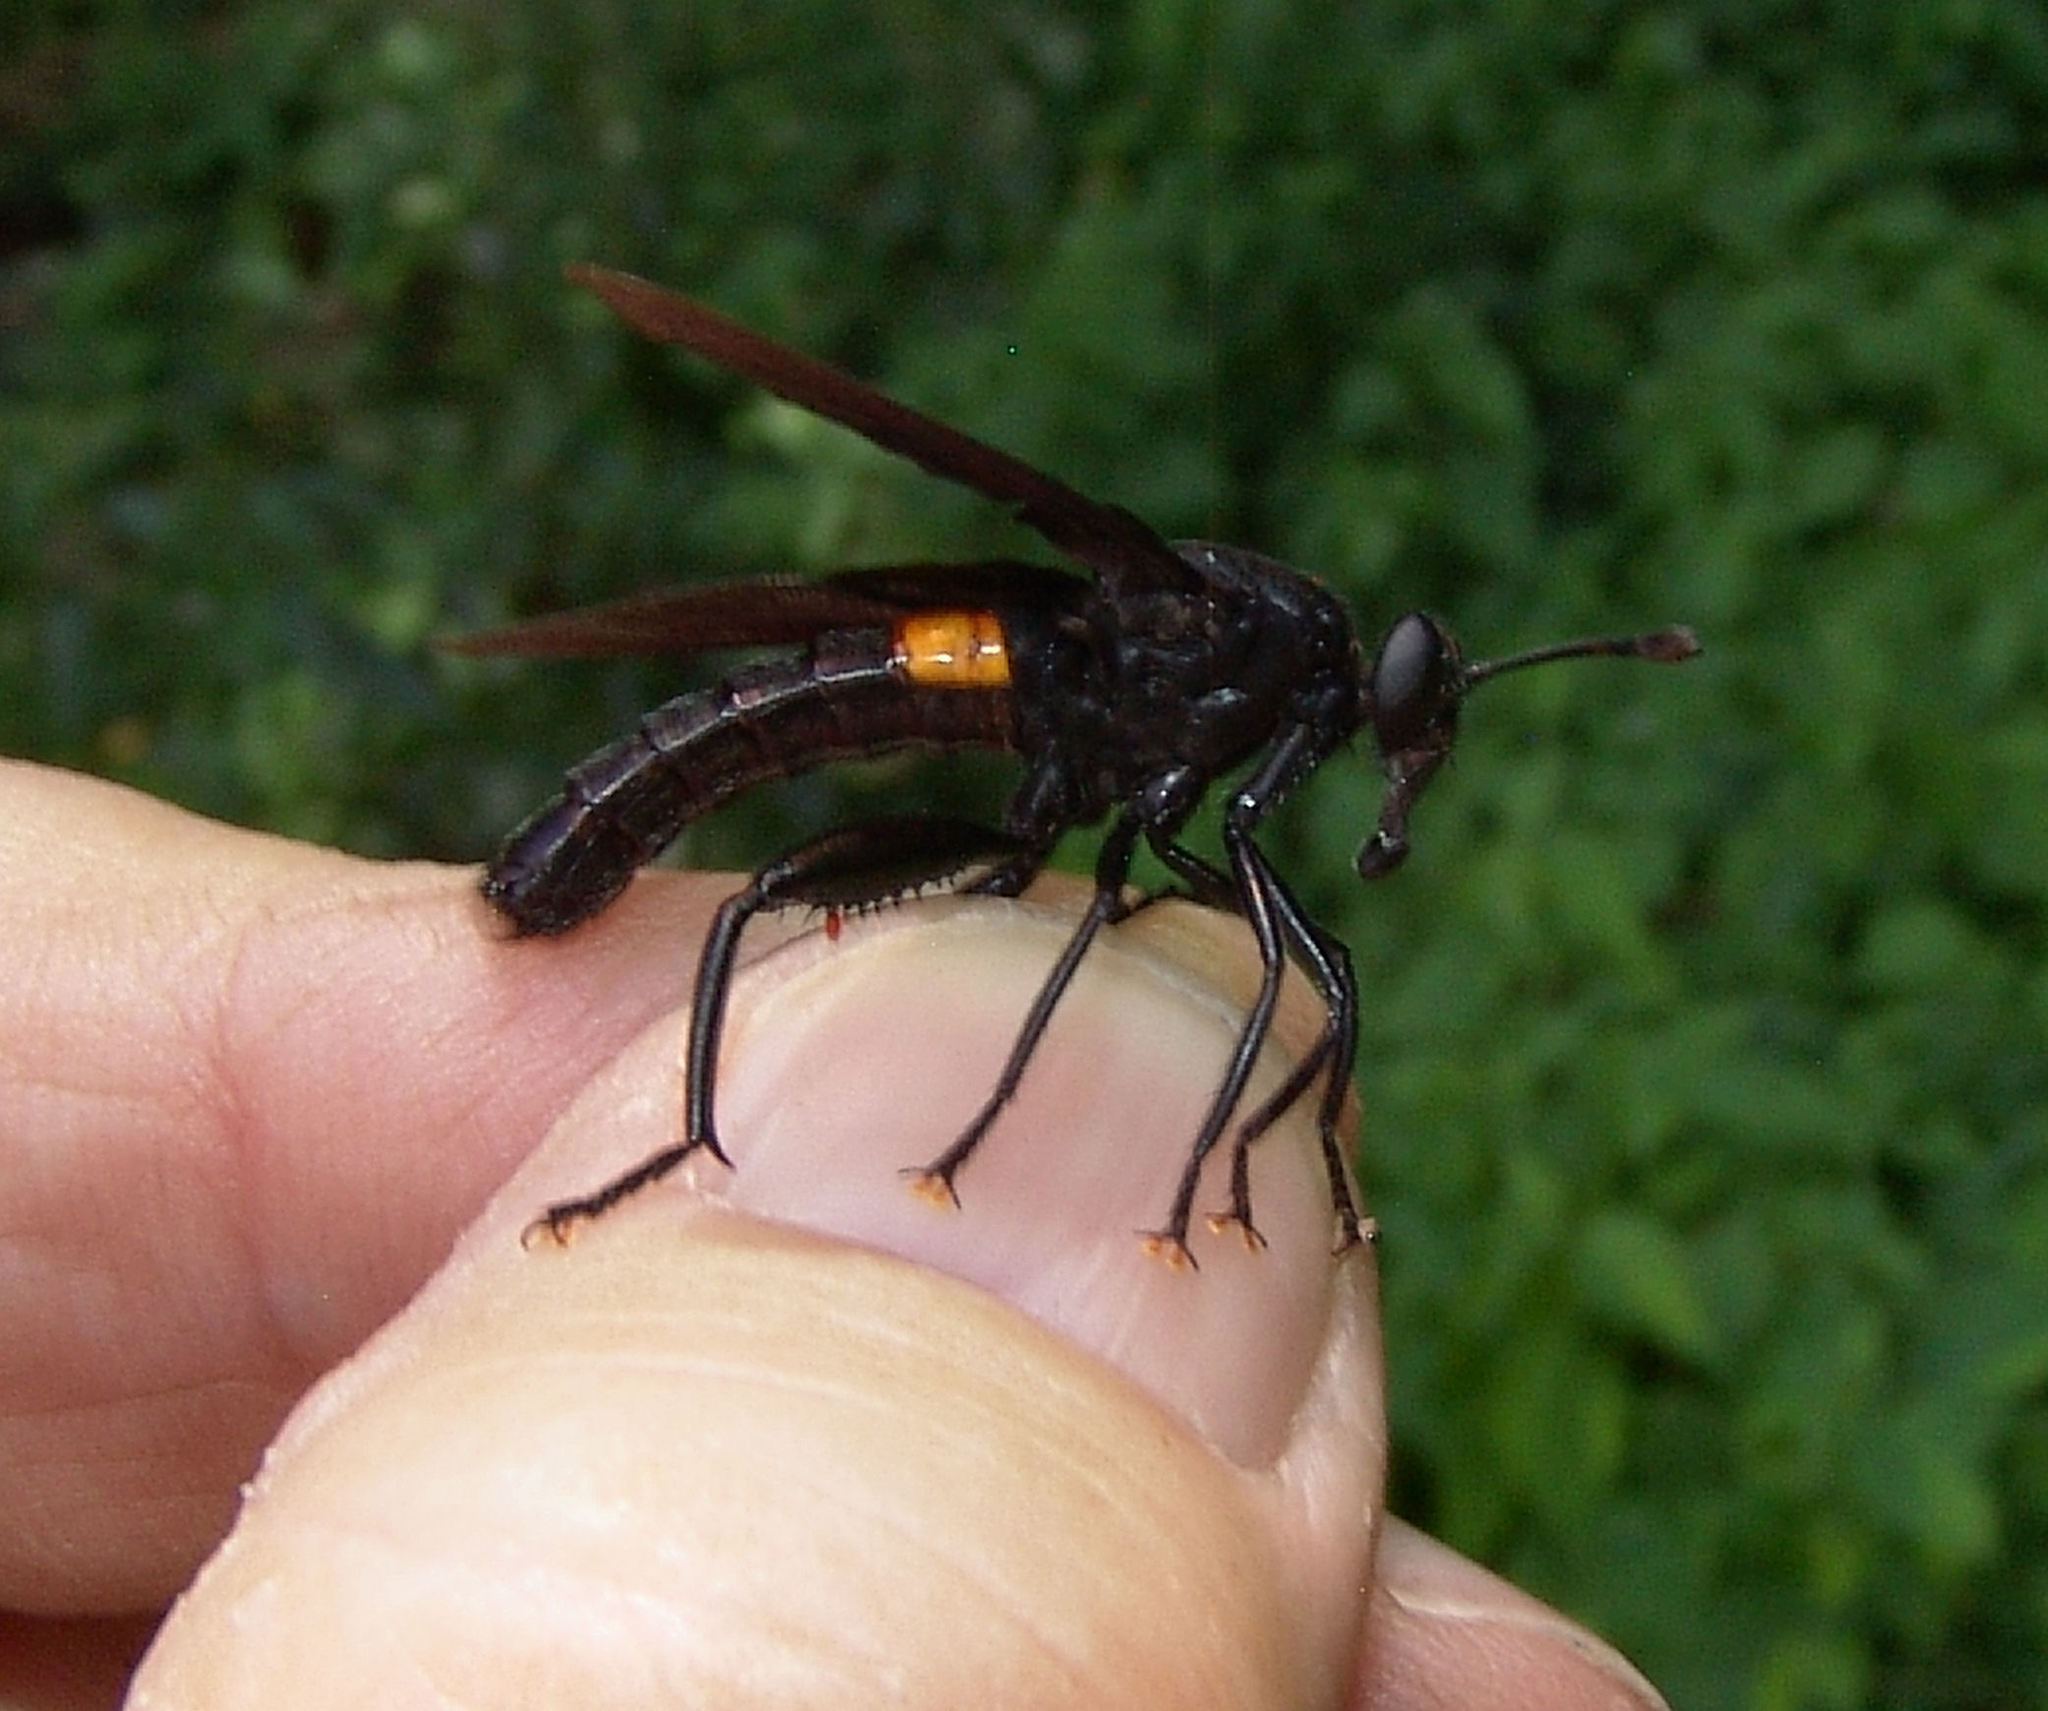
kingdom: Animalia
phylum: Arthropoda
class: Insecta
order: Diptera
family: Mydidae
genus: Mydas
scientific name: Mydas clavatus
